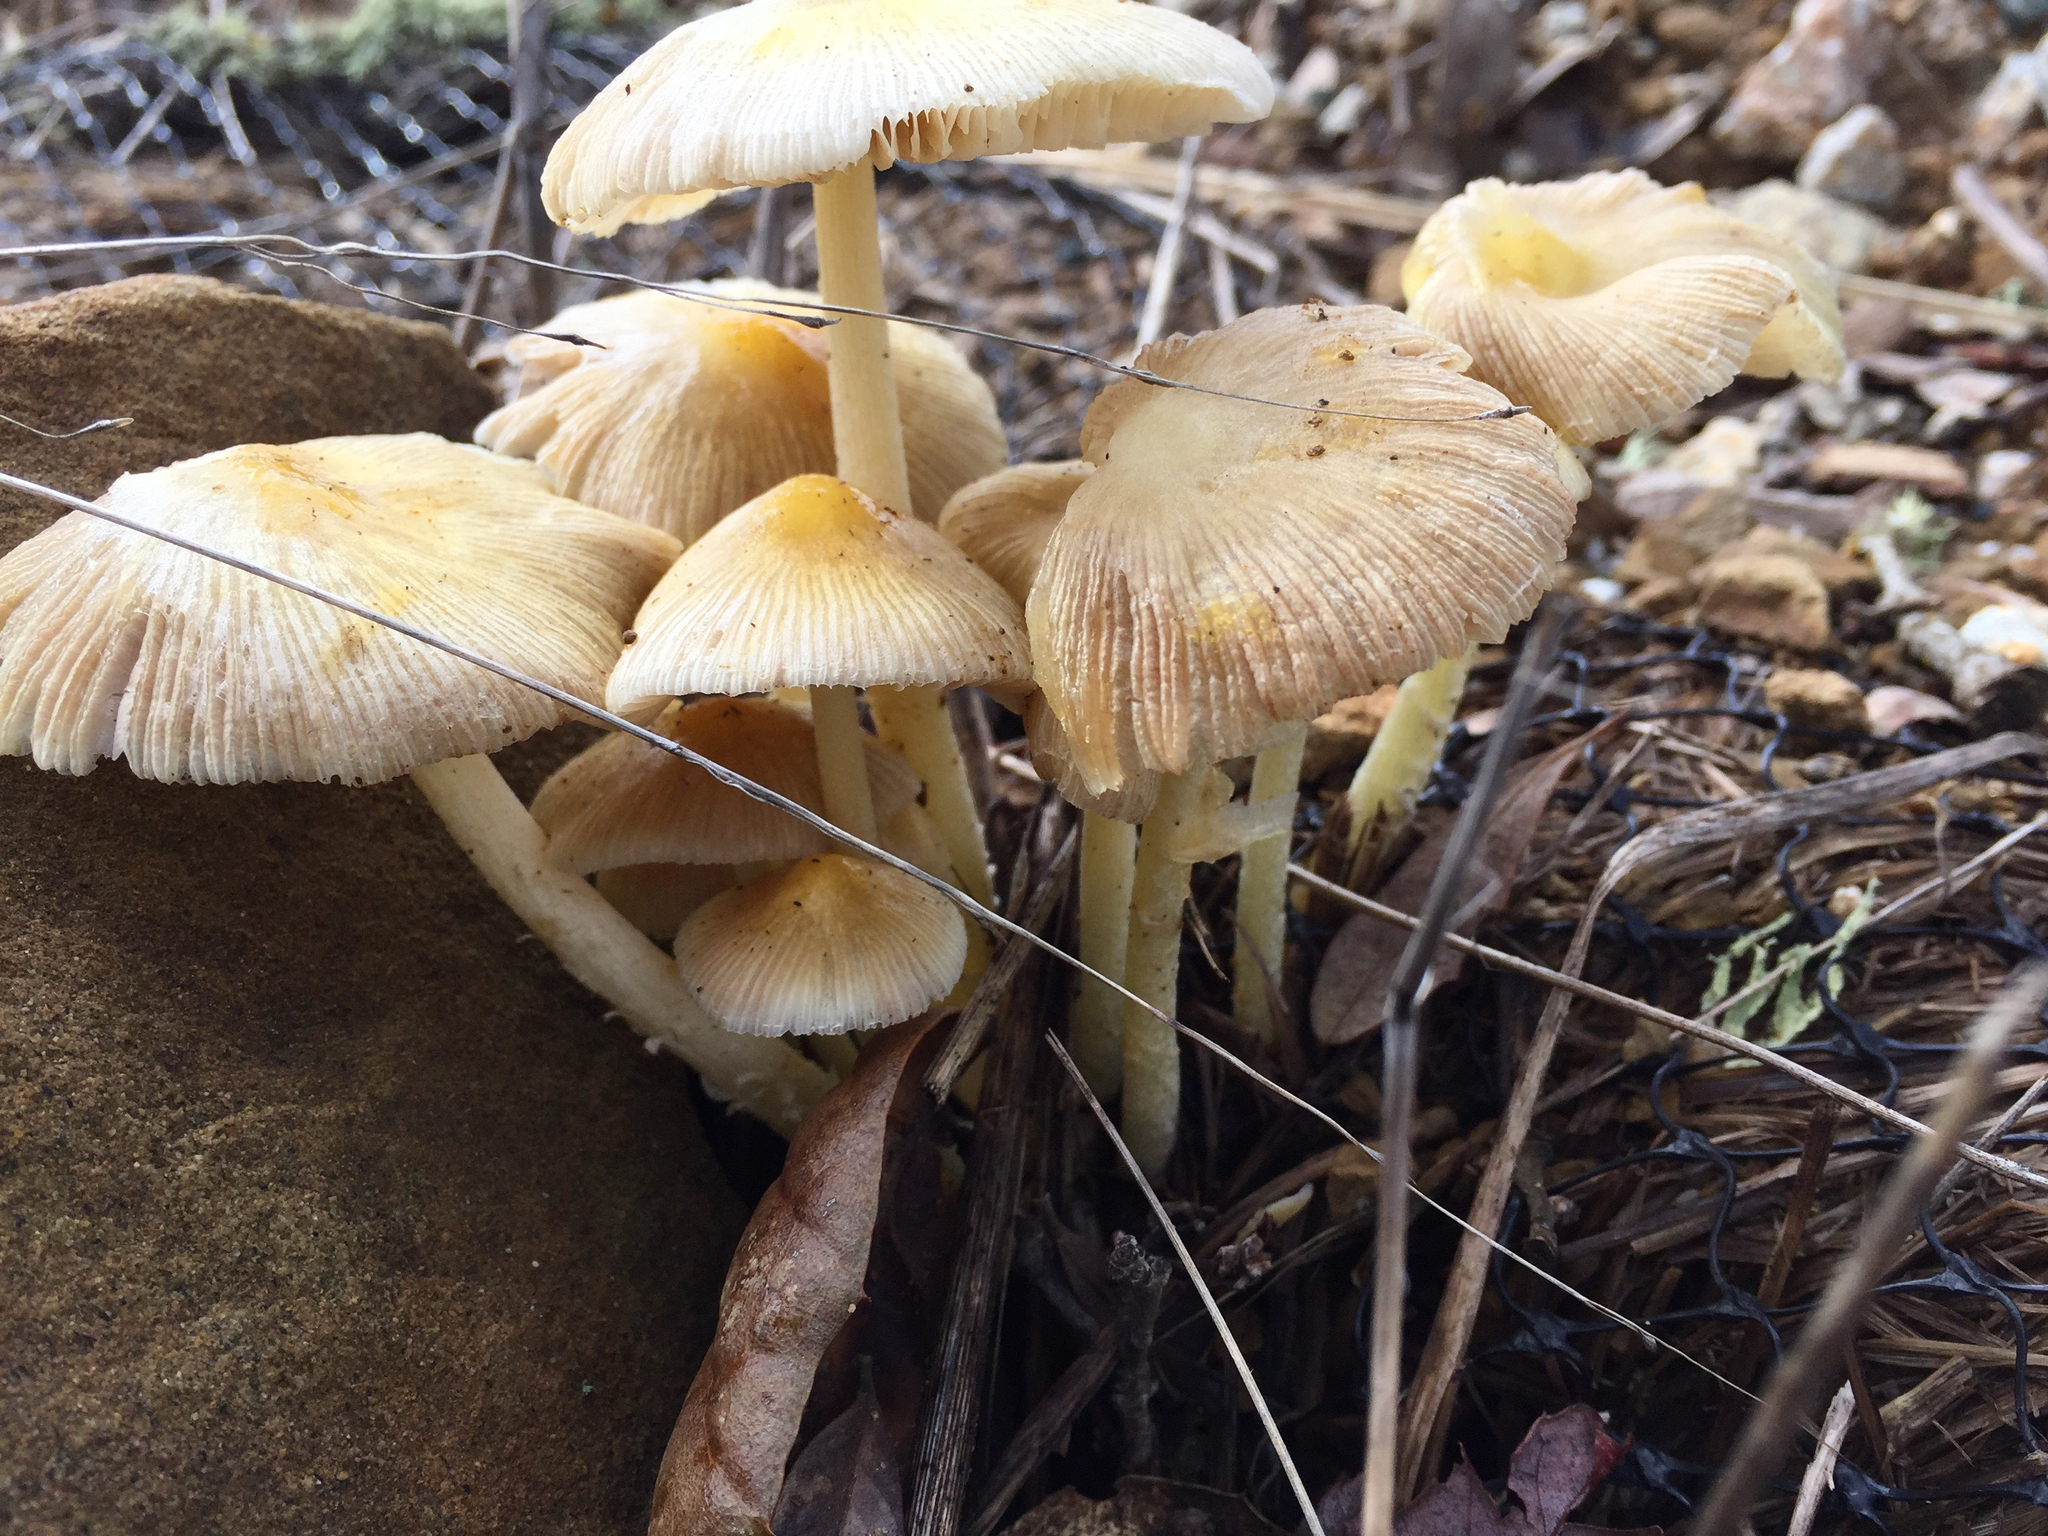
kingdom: Fungi
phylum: Basidiomycota
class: Agaricomycetes
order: Agaricales
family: Bolbitiaceae
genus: Bolbitius
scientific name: Bolbitius titubans
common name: Yellow fieldcap
